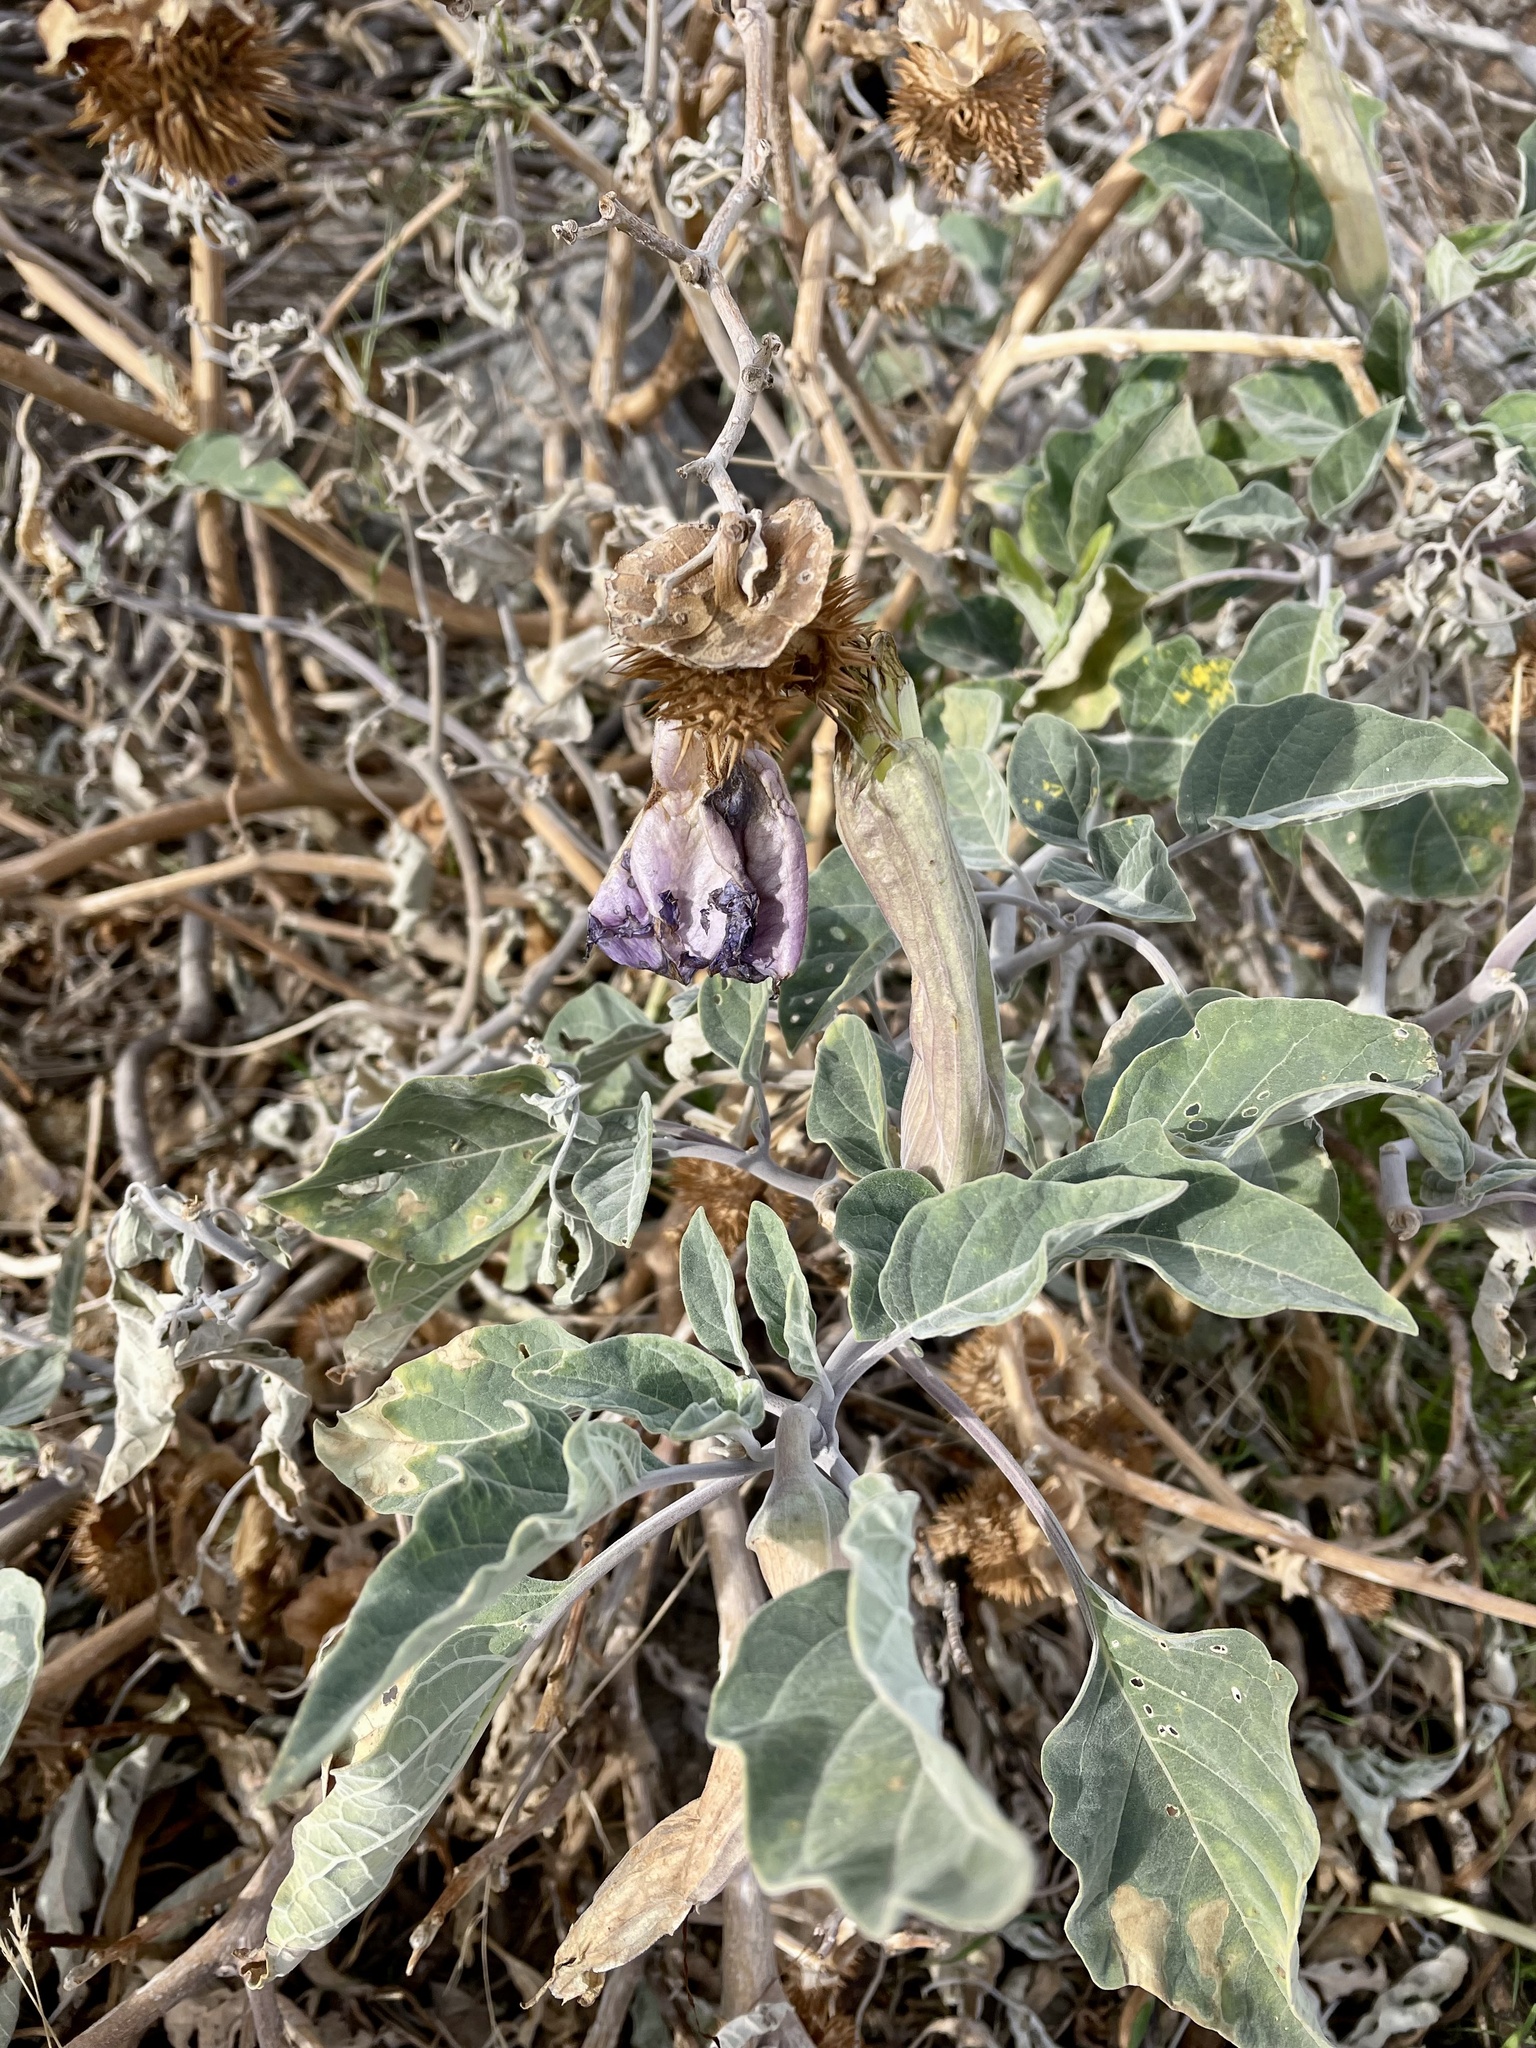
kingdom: Plantae
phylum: Tracheophyta
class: Magnoliopsida
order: Solanales
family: Solanaceae
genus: Datura
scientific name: Datura wrightii
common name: Sacred thorn-apple
